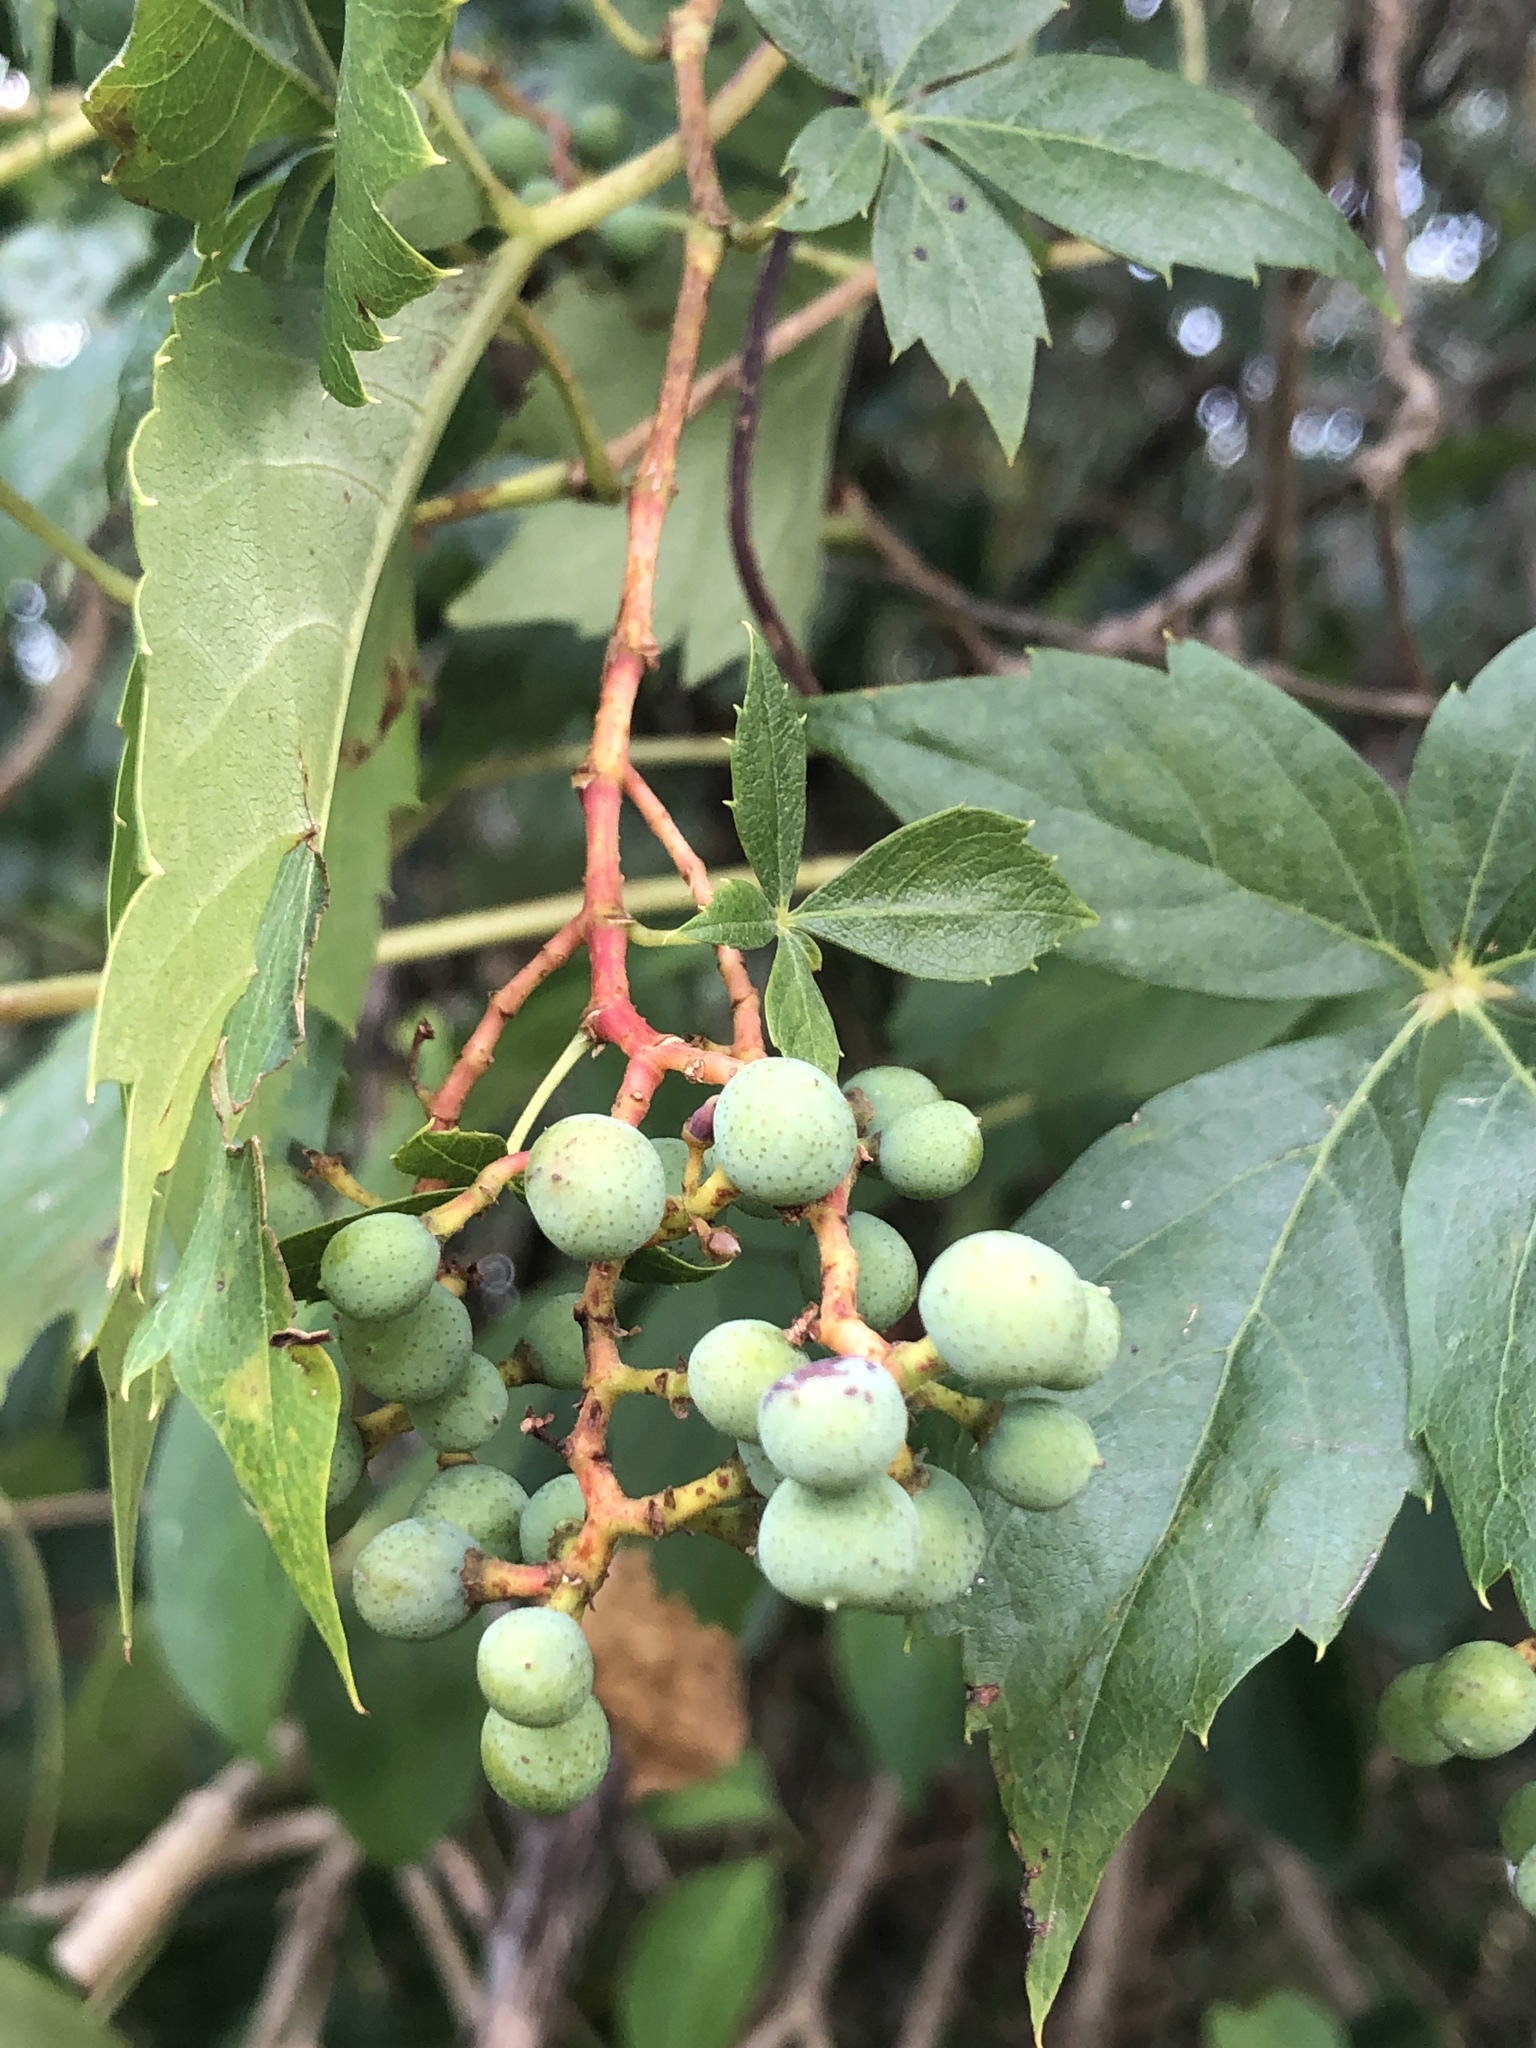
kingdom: Plantae
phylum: Tracheophyta
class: Magnoliopsida
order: Vitales
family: Vitaceae
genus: Parthenocissus
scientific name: Parthenocissus quinquefolia
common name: Virginia-creeper
